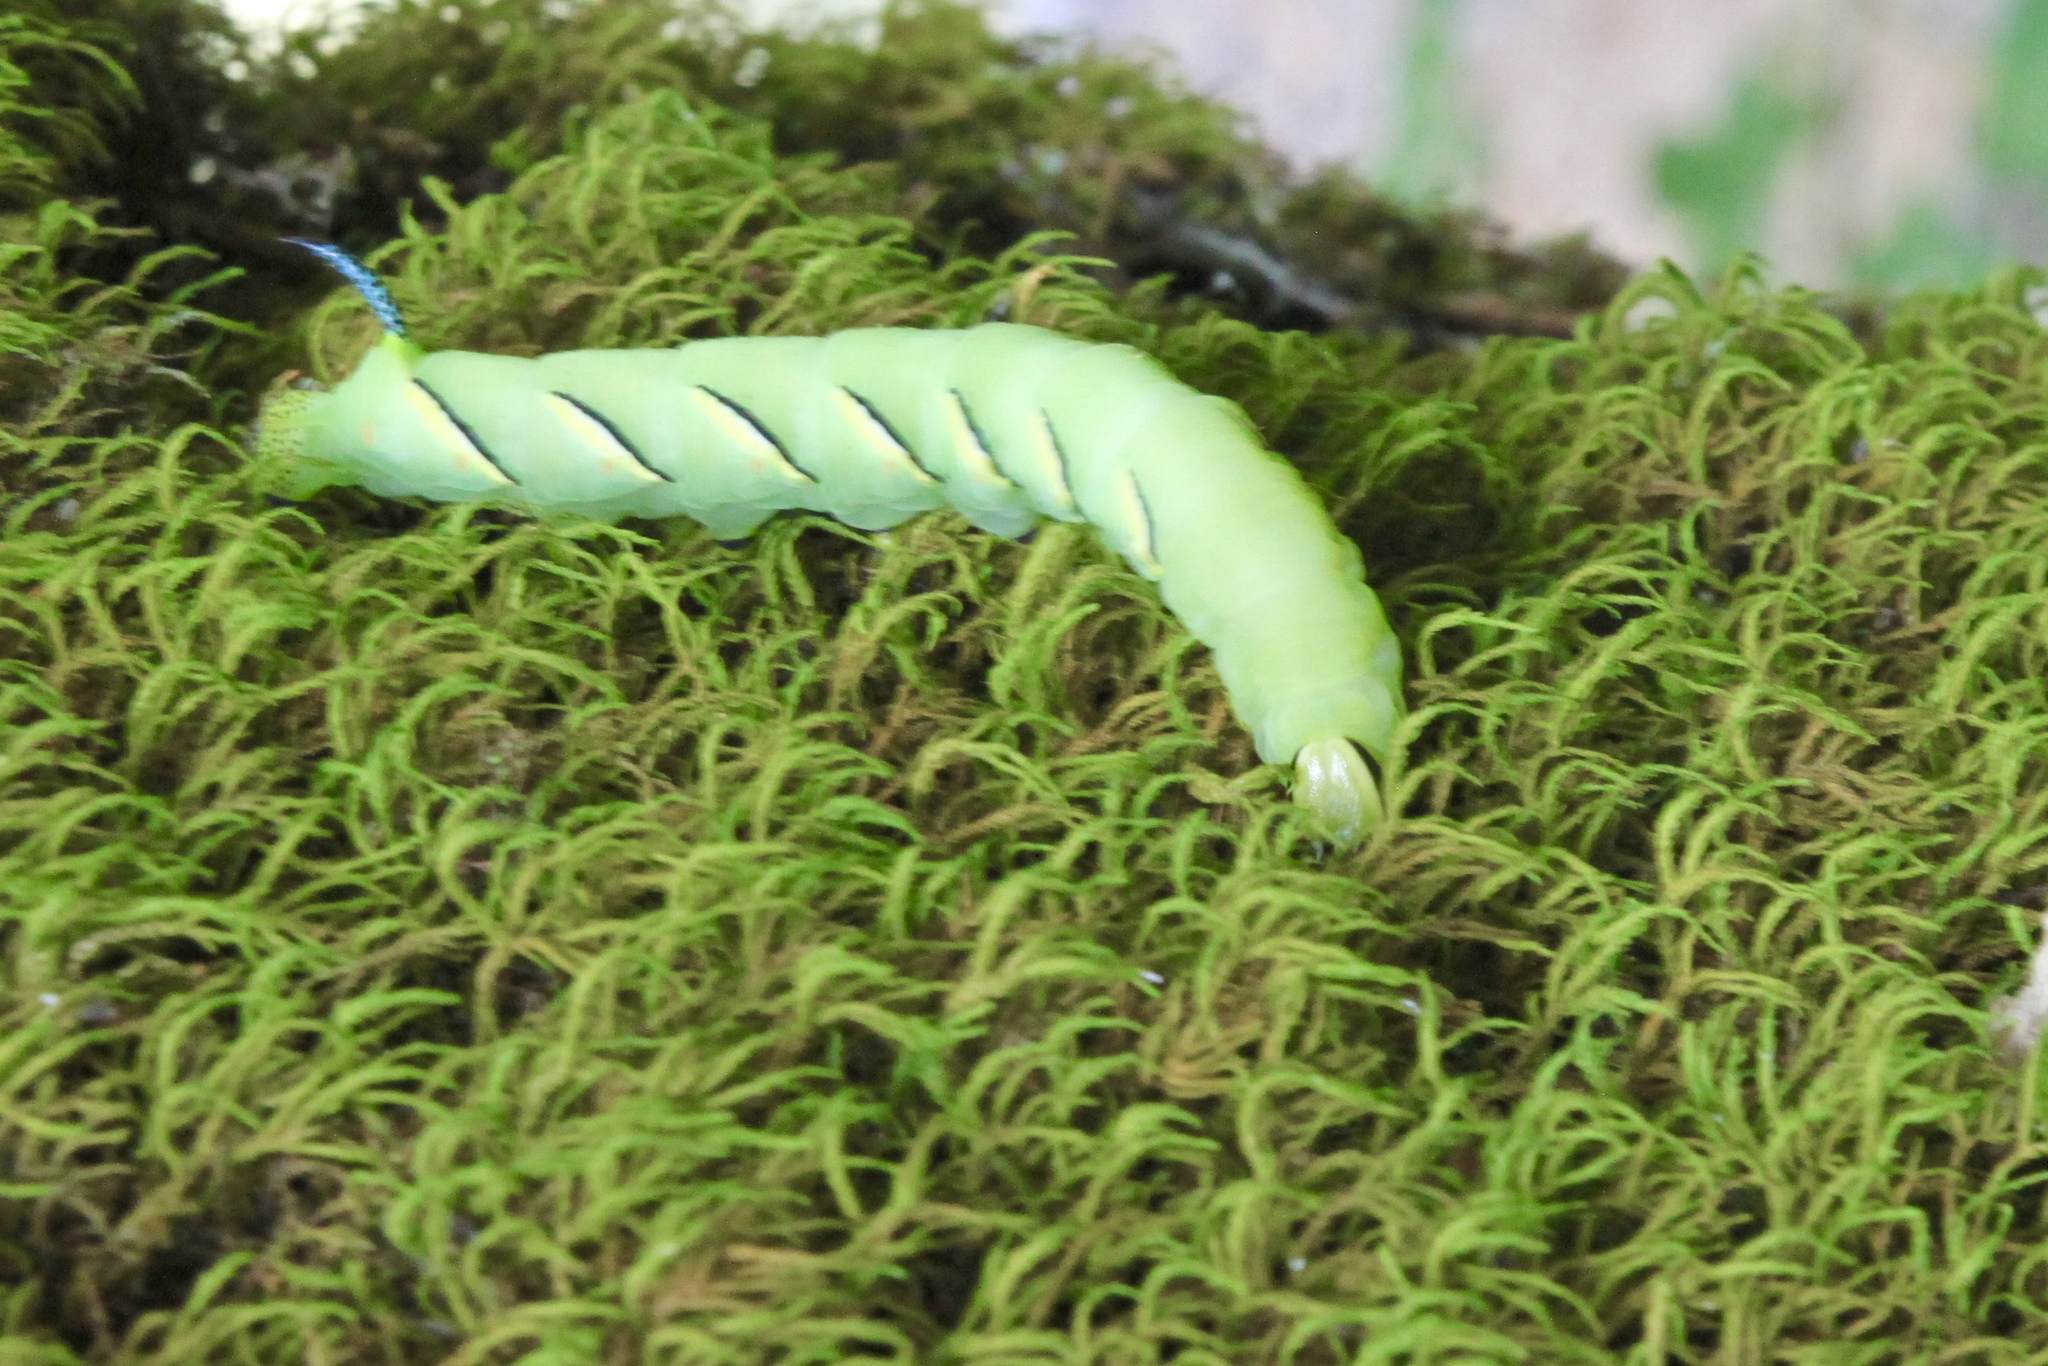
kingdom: Animalia
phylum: Arthropoda
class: Insecta
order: Lepidoptera
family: Sphingidae
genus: Sphinx
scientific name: Sphinx kalmiae
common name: Laurel sphinx
